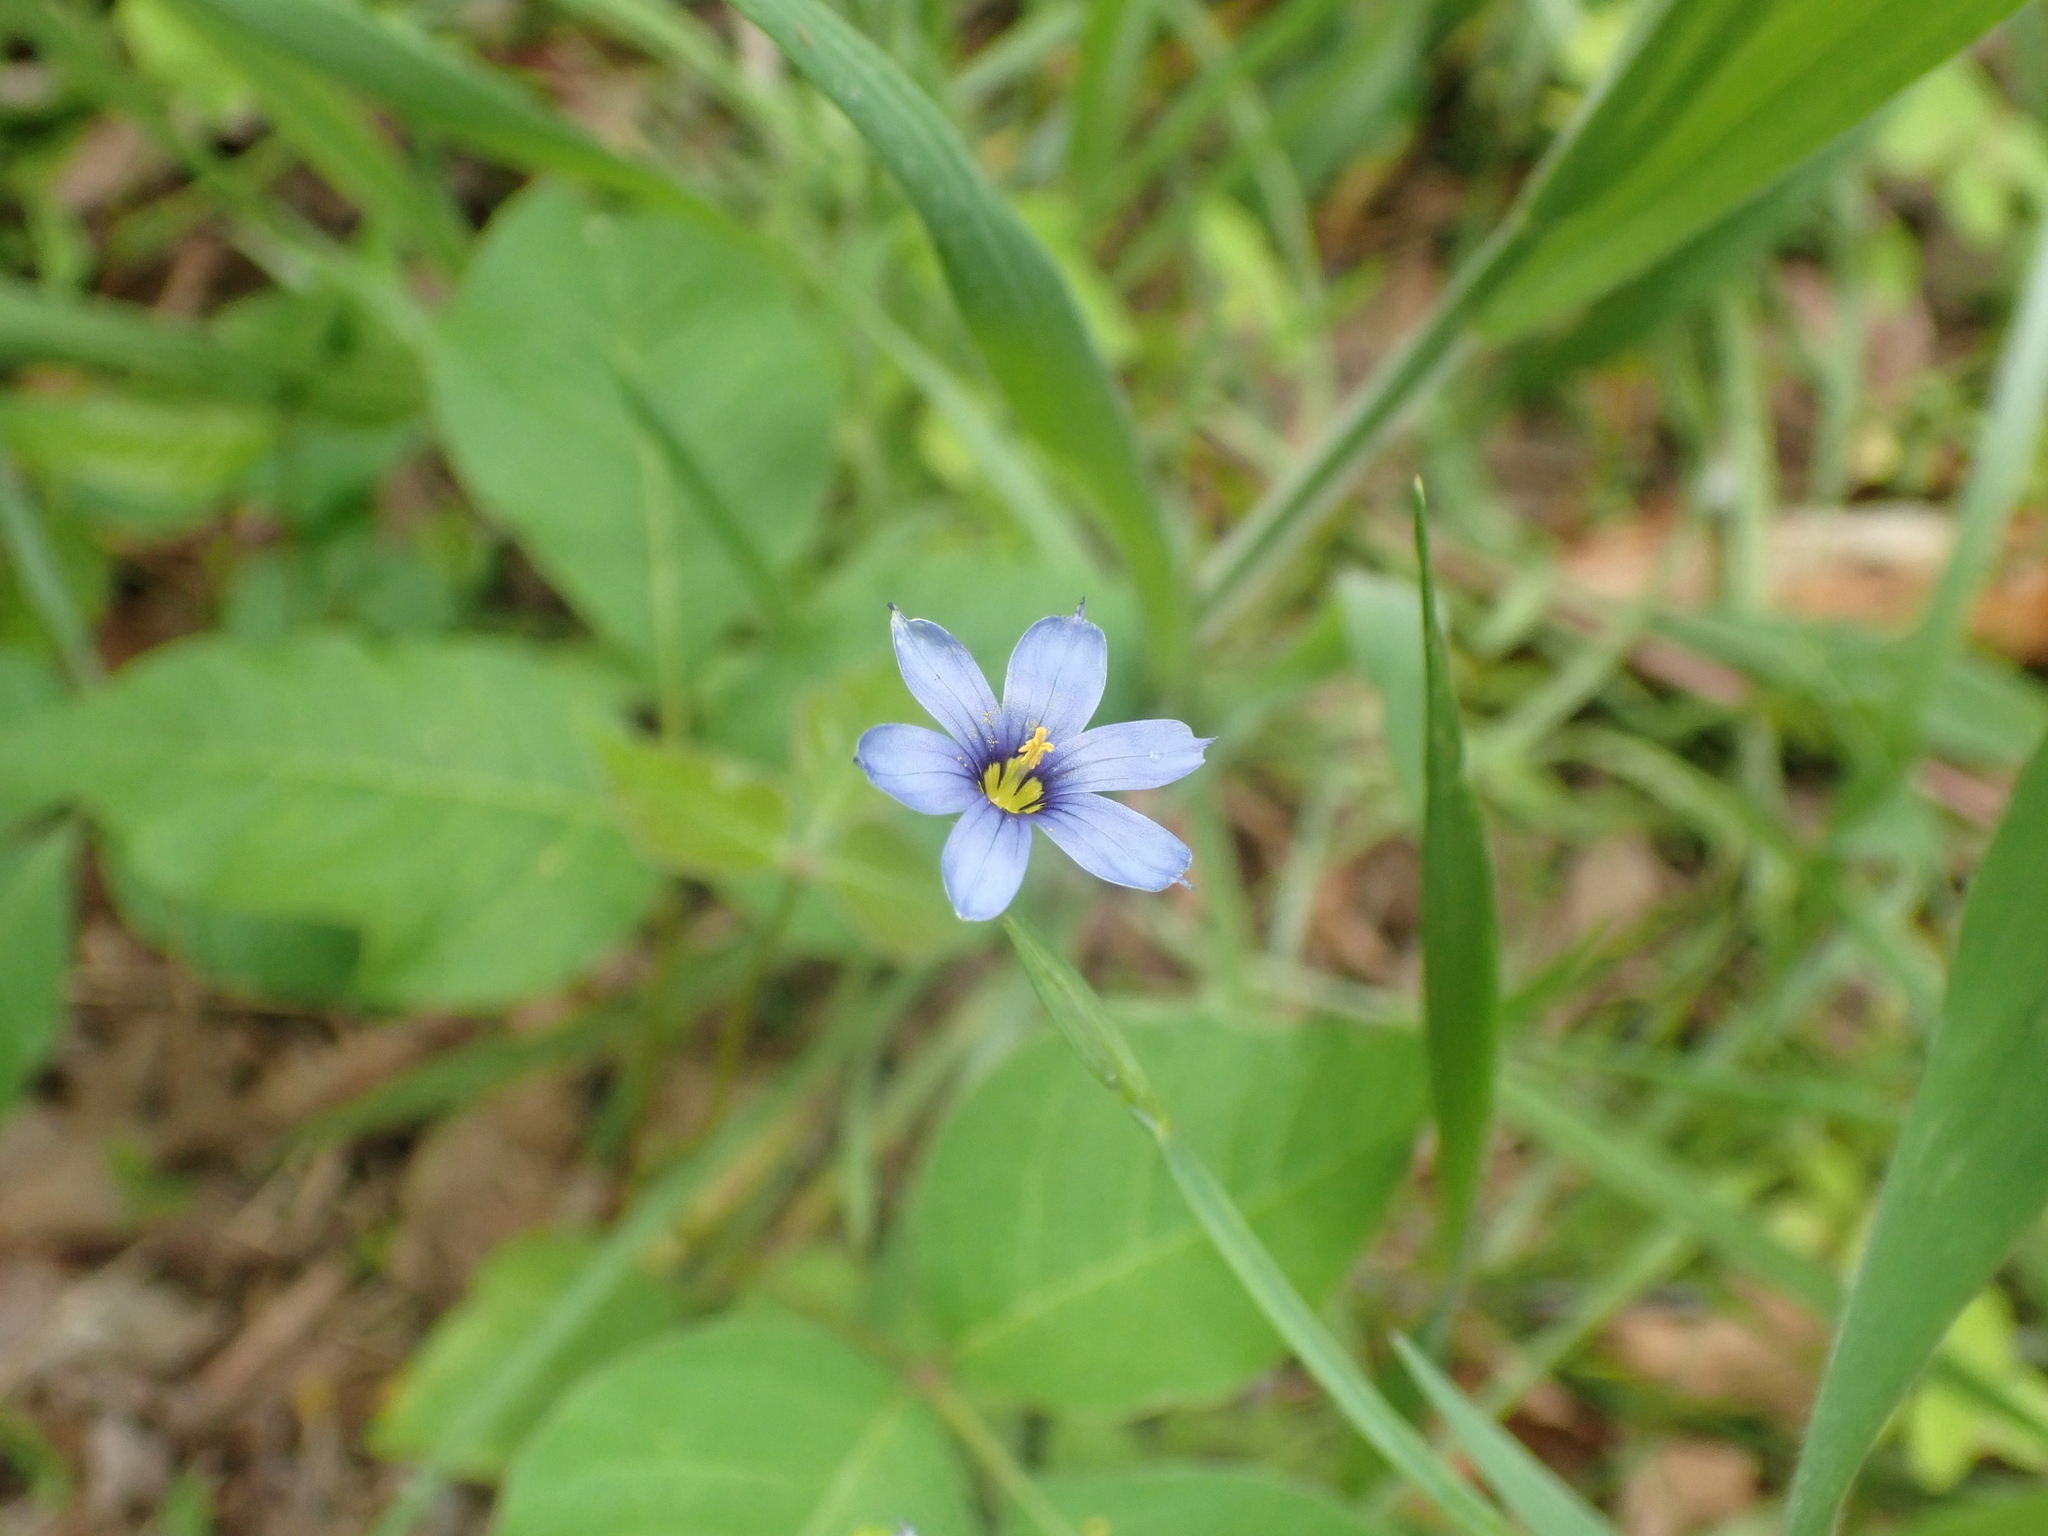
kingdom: Plantae
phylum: Tracheophyta
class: Liliopsida
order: Asparagales
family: Iridaceae
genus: Sisyrinchium
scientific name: Sisyrinchium angustifolium
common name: Narrow-leaf blue-eyed-grass
